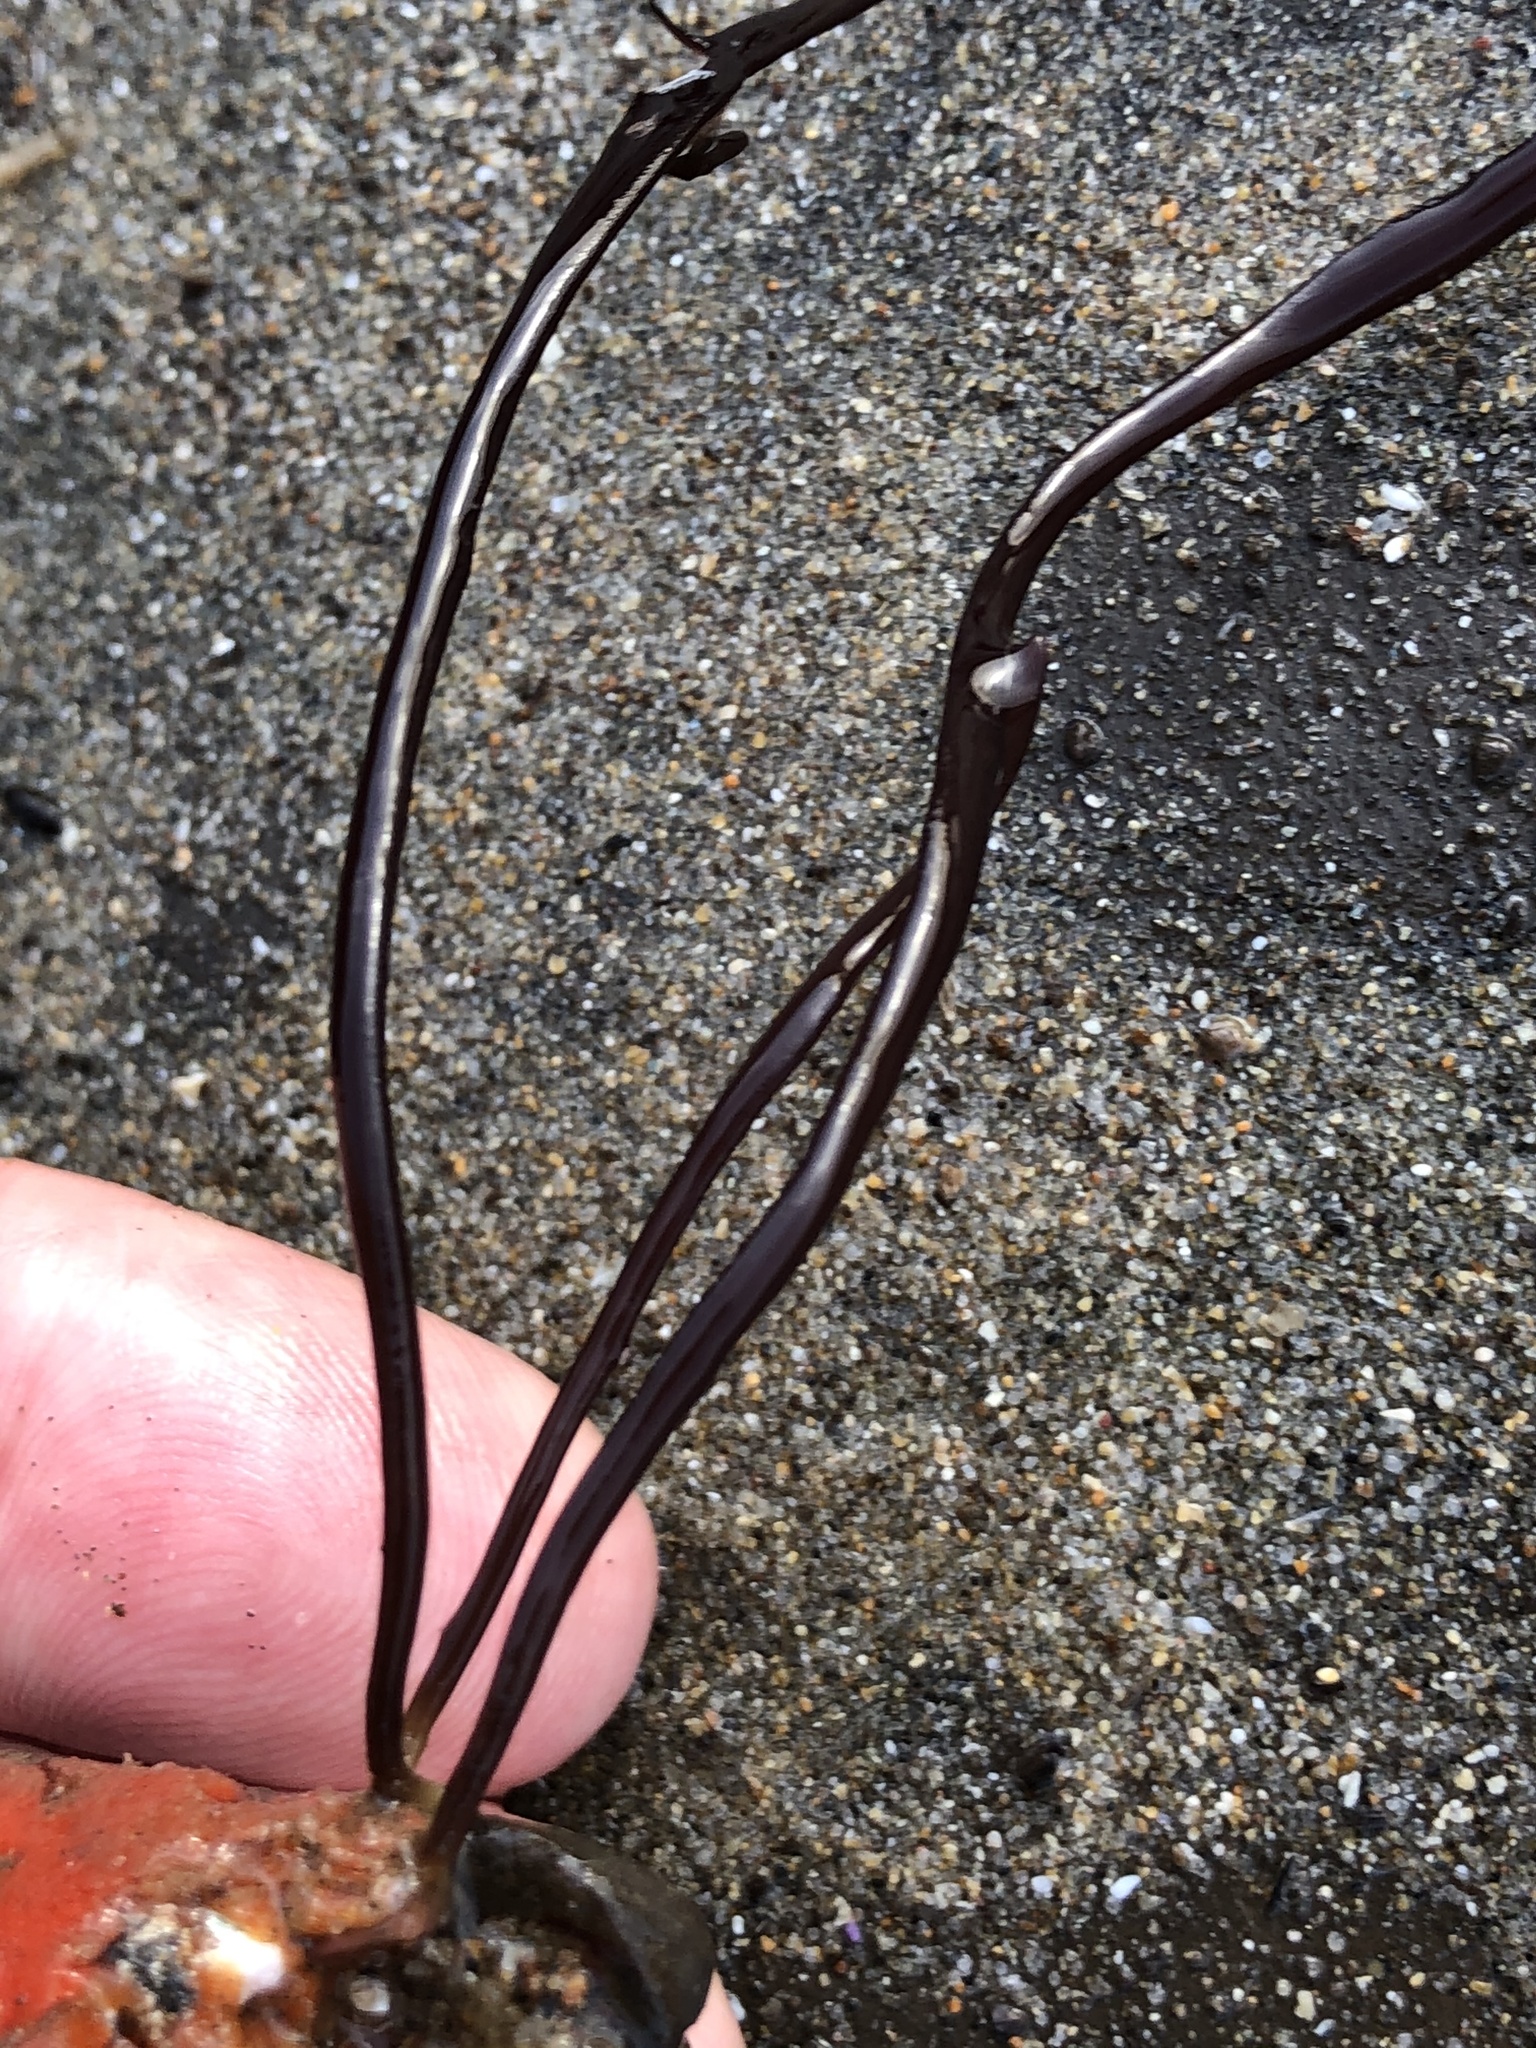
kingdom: Chromista
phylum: Ochrophyta
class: Phaeophyceae
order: Laminariales
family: Laminariaceae
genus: Laminaria
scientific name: Laminaria sinclairii
